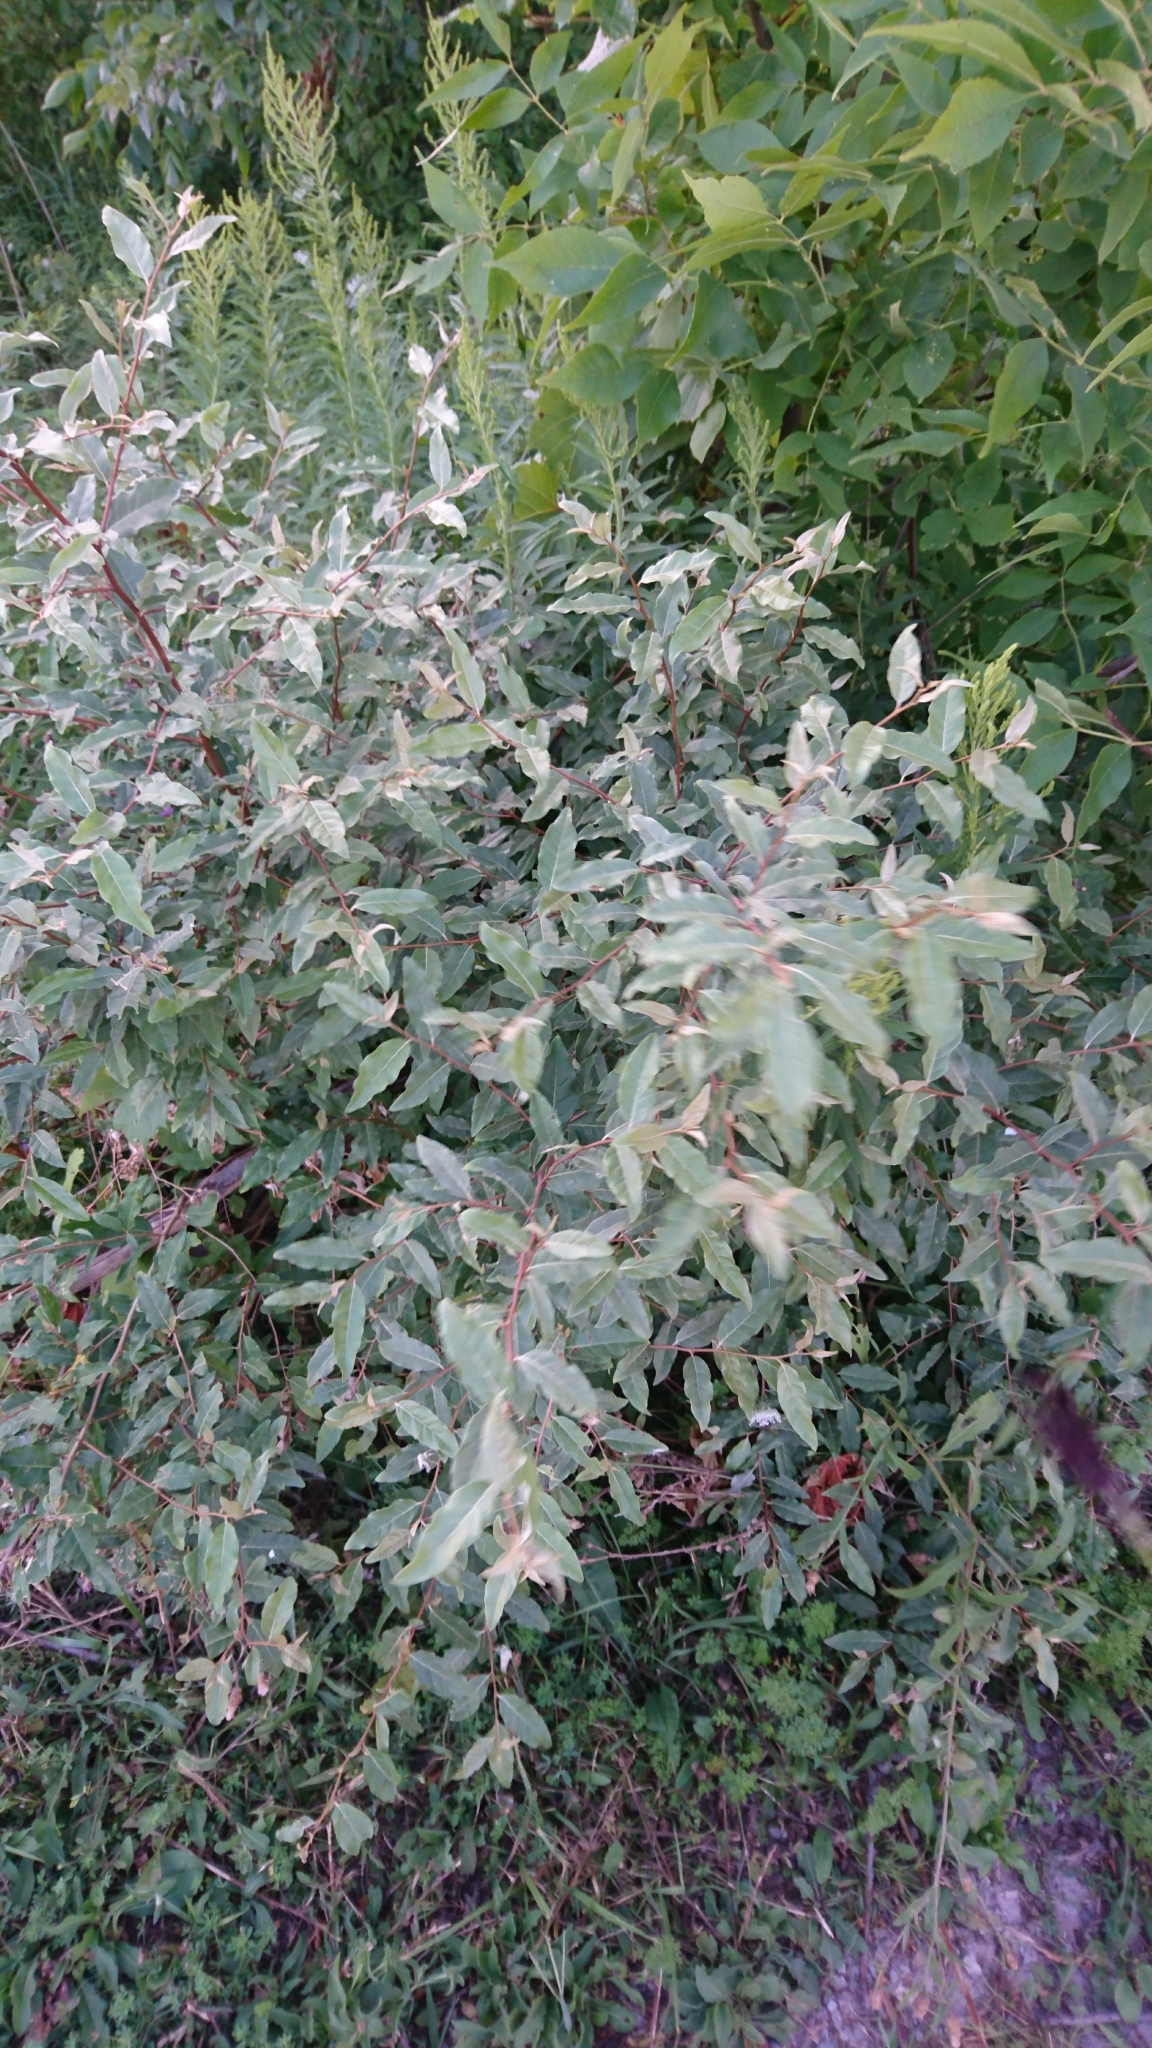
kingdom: Plantae
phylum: Tracheophyta
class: Magnoliopsida
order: Rosales
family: Elaeagnaceae
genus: Elaeagnus
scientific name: Elaeagnus umbellata
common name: Autumn olive
